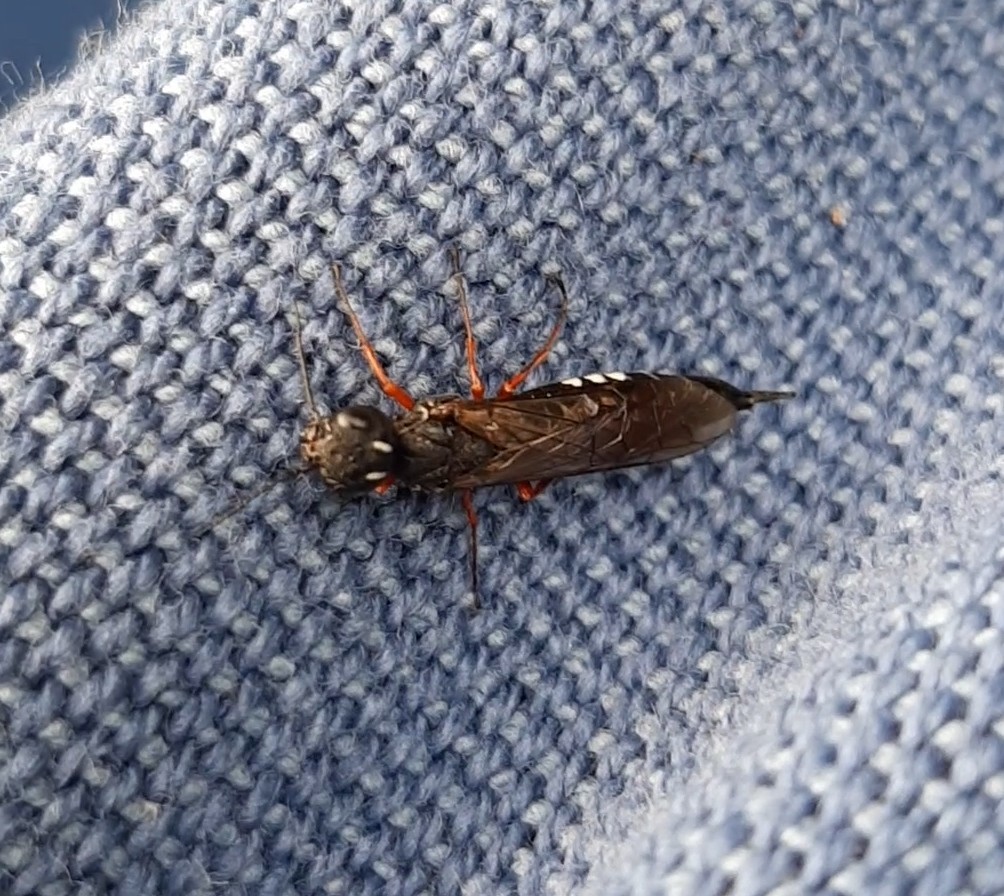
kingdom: Animalia
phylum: Arthropoda
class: Insecta
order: Hymenoptera
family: Xiphydriidae
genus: Xiphydria
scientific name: Xiphydria camelus
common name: Alder wood-wasp
